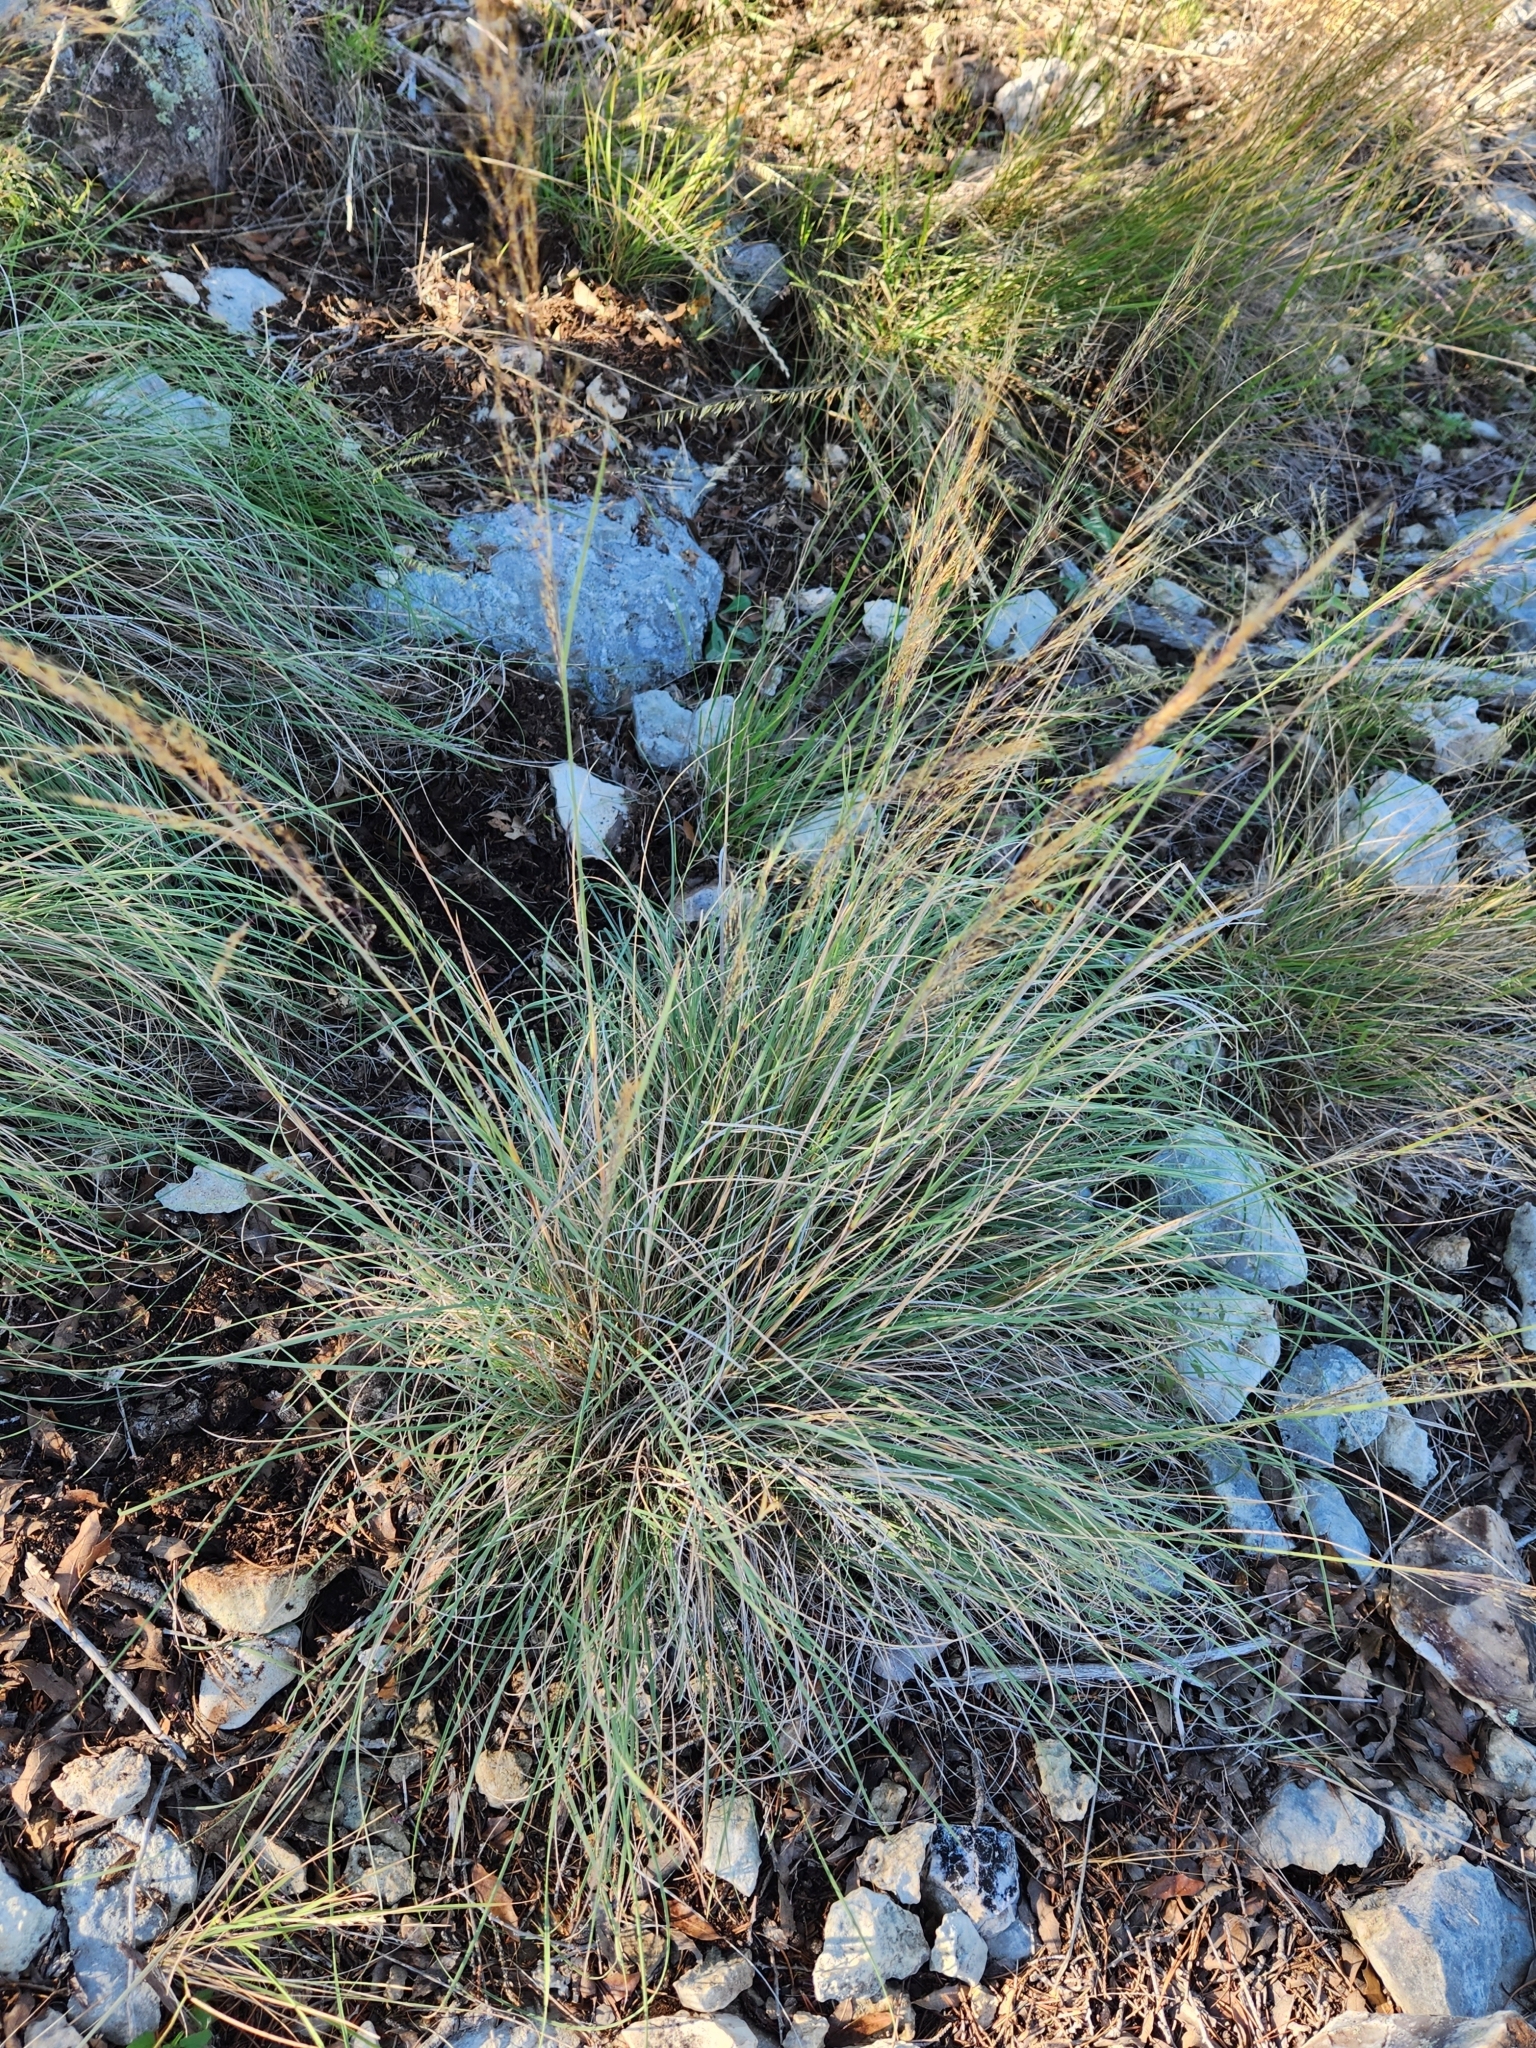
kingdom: Plantae
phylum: Tracheophyta
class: Liliopsida
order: Poales
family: Poaceae
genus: Muhlenbergia
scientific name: Muhlenbergia spiciformis
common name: Longawn muhly
